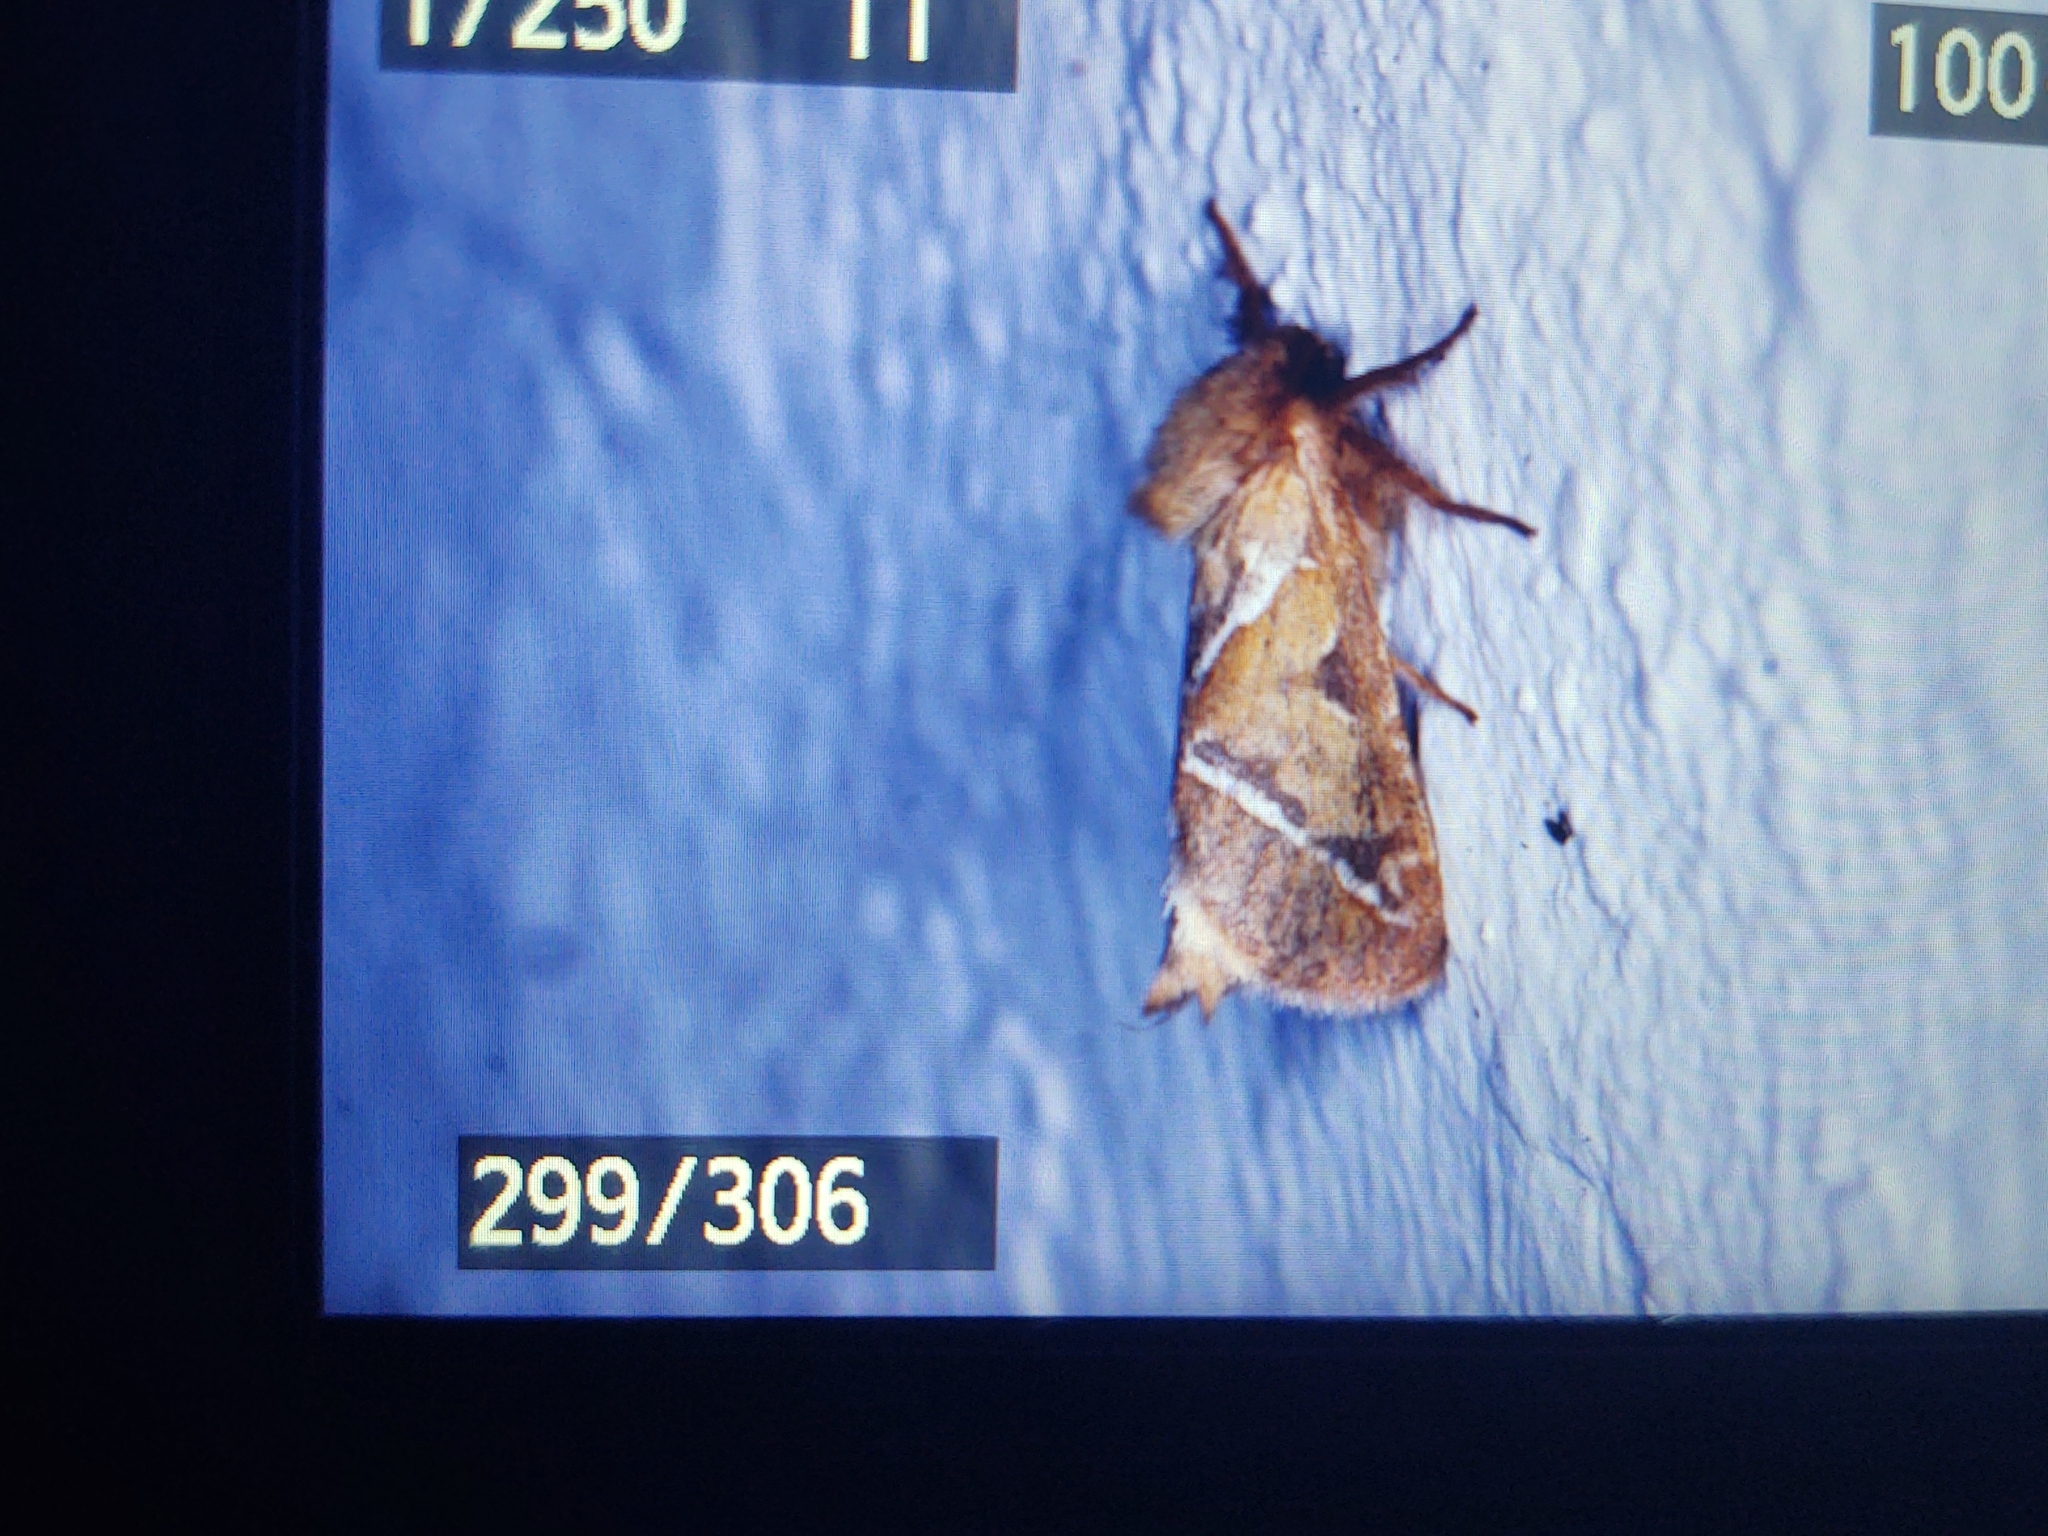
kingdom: Animalia
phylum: Arthropoda
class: Insecta
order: Lepidoptera
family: Hepialidae
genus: Triodia
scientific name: Triodia sylvina
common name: Orange swift
